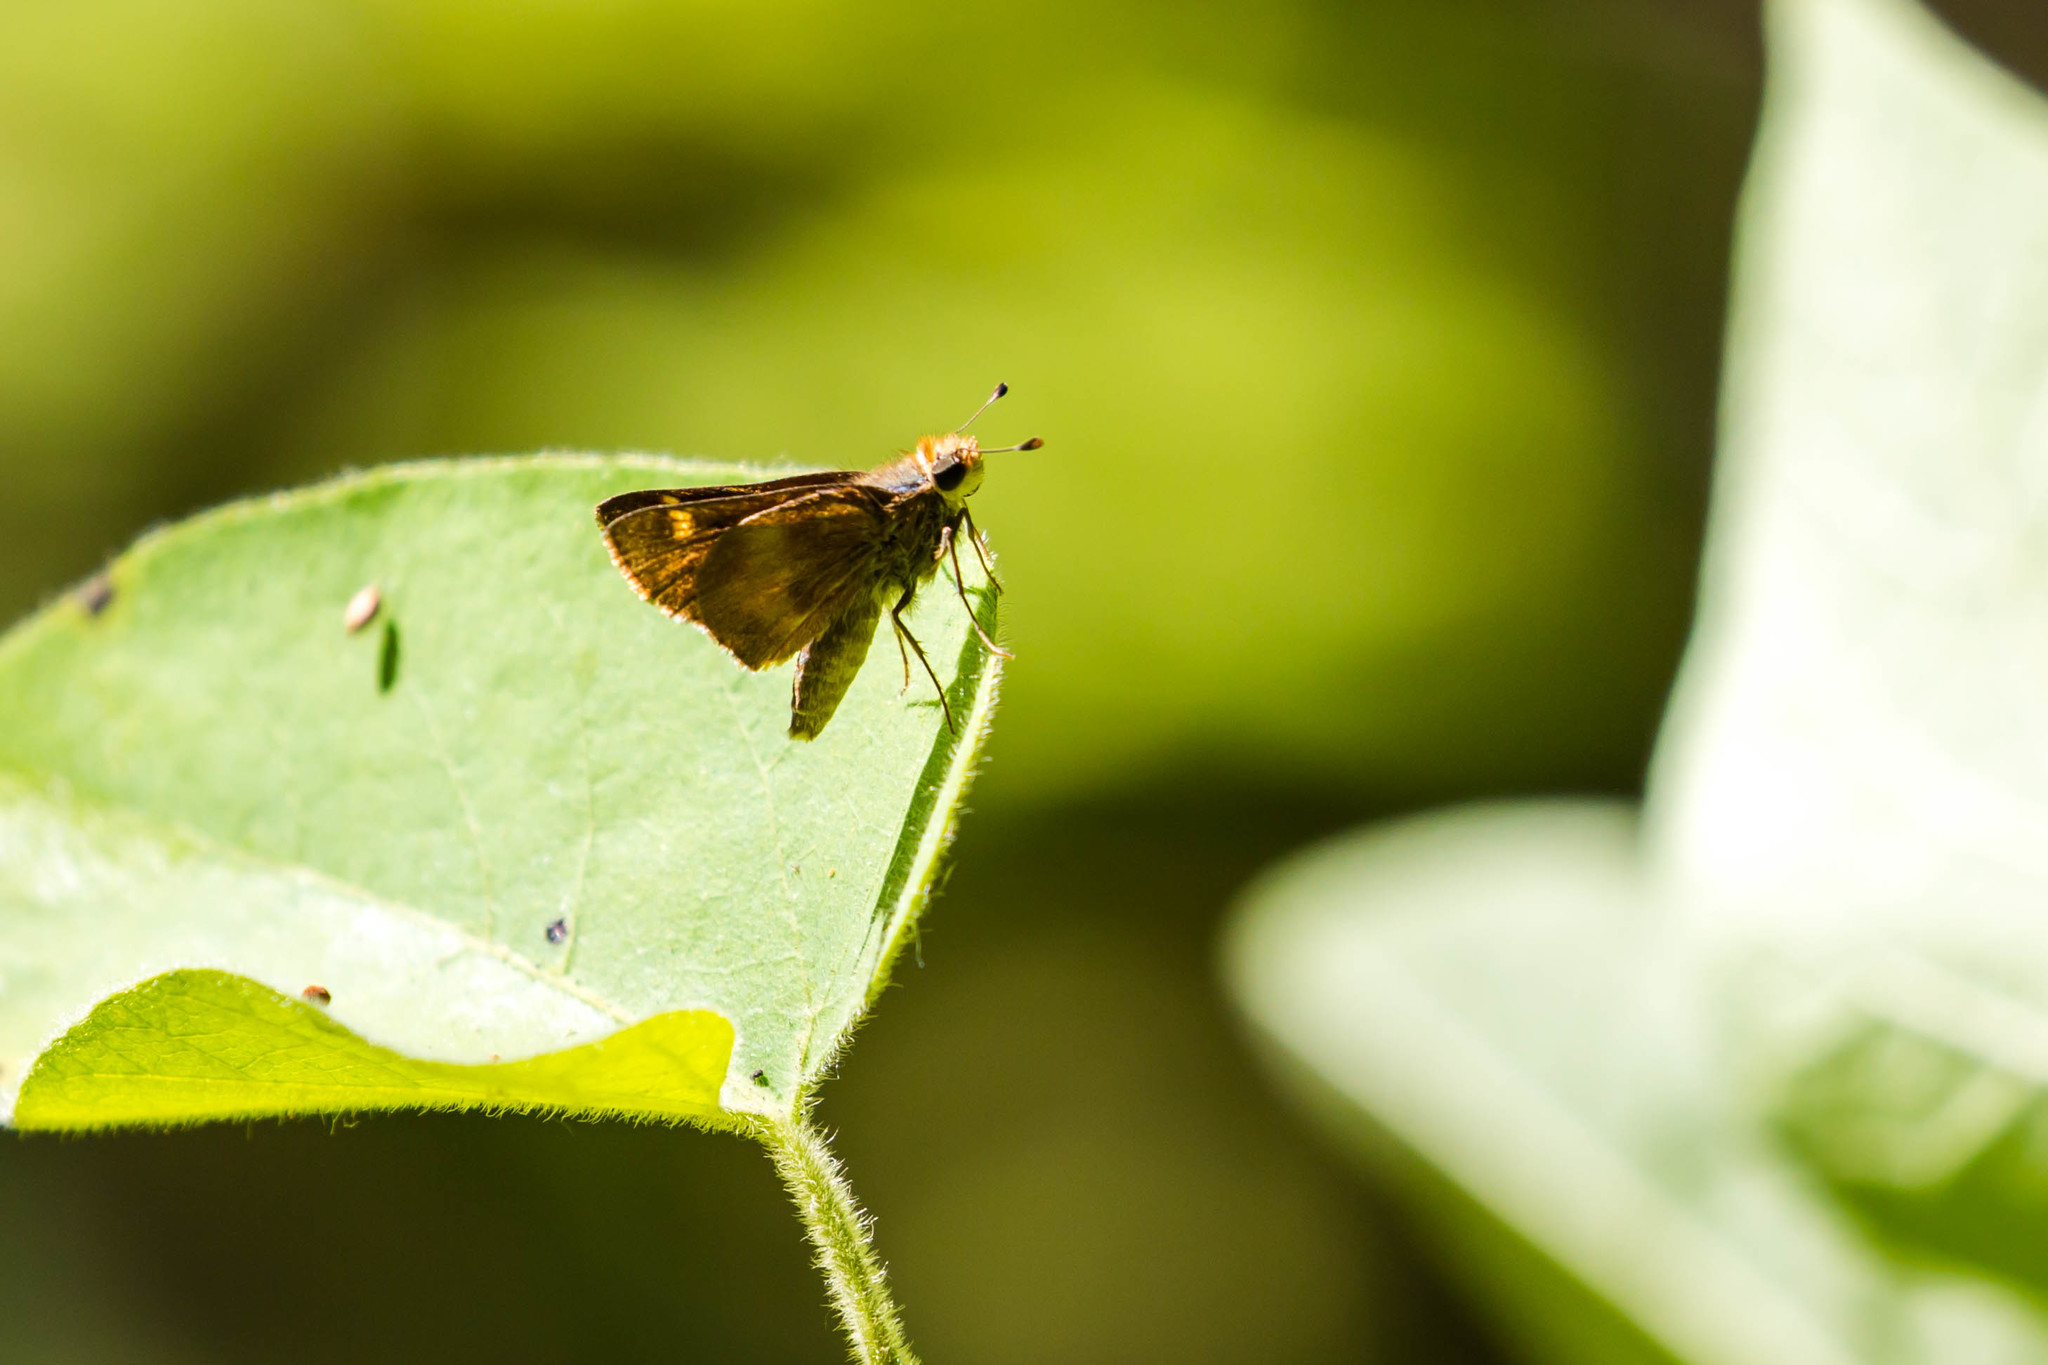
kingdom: Animalia
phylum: Arthropoda
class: Insecta
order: Lepidoptera
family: Hesperiidae
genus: Lon
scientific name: Lon melane
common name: Umber skipper
